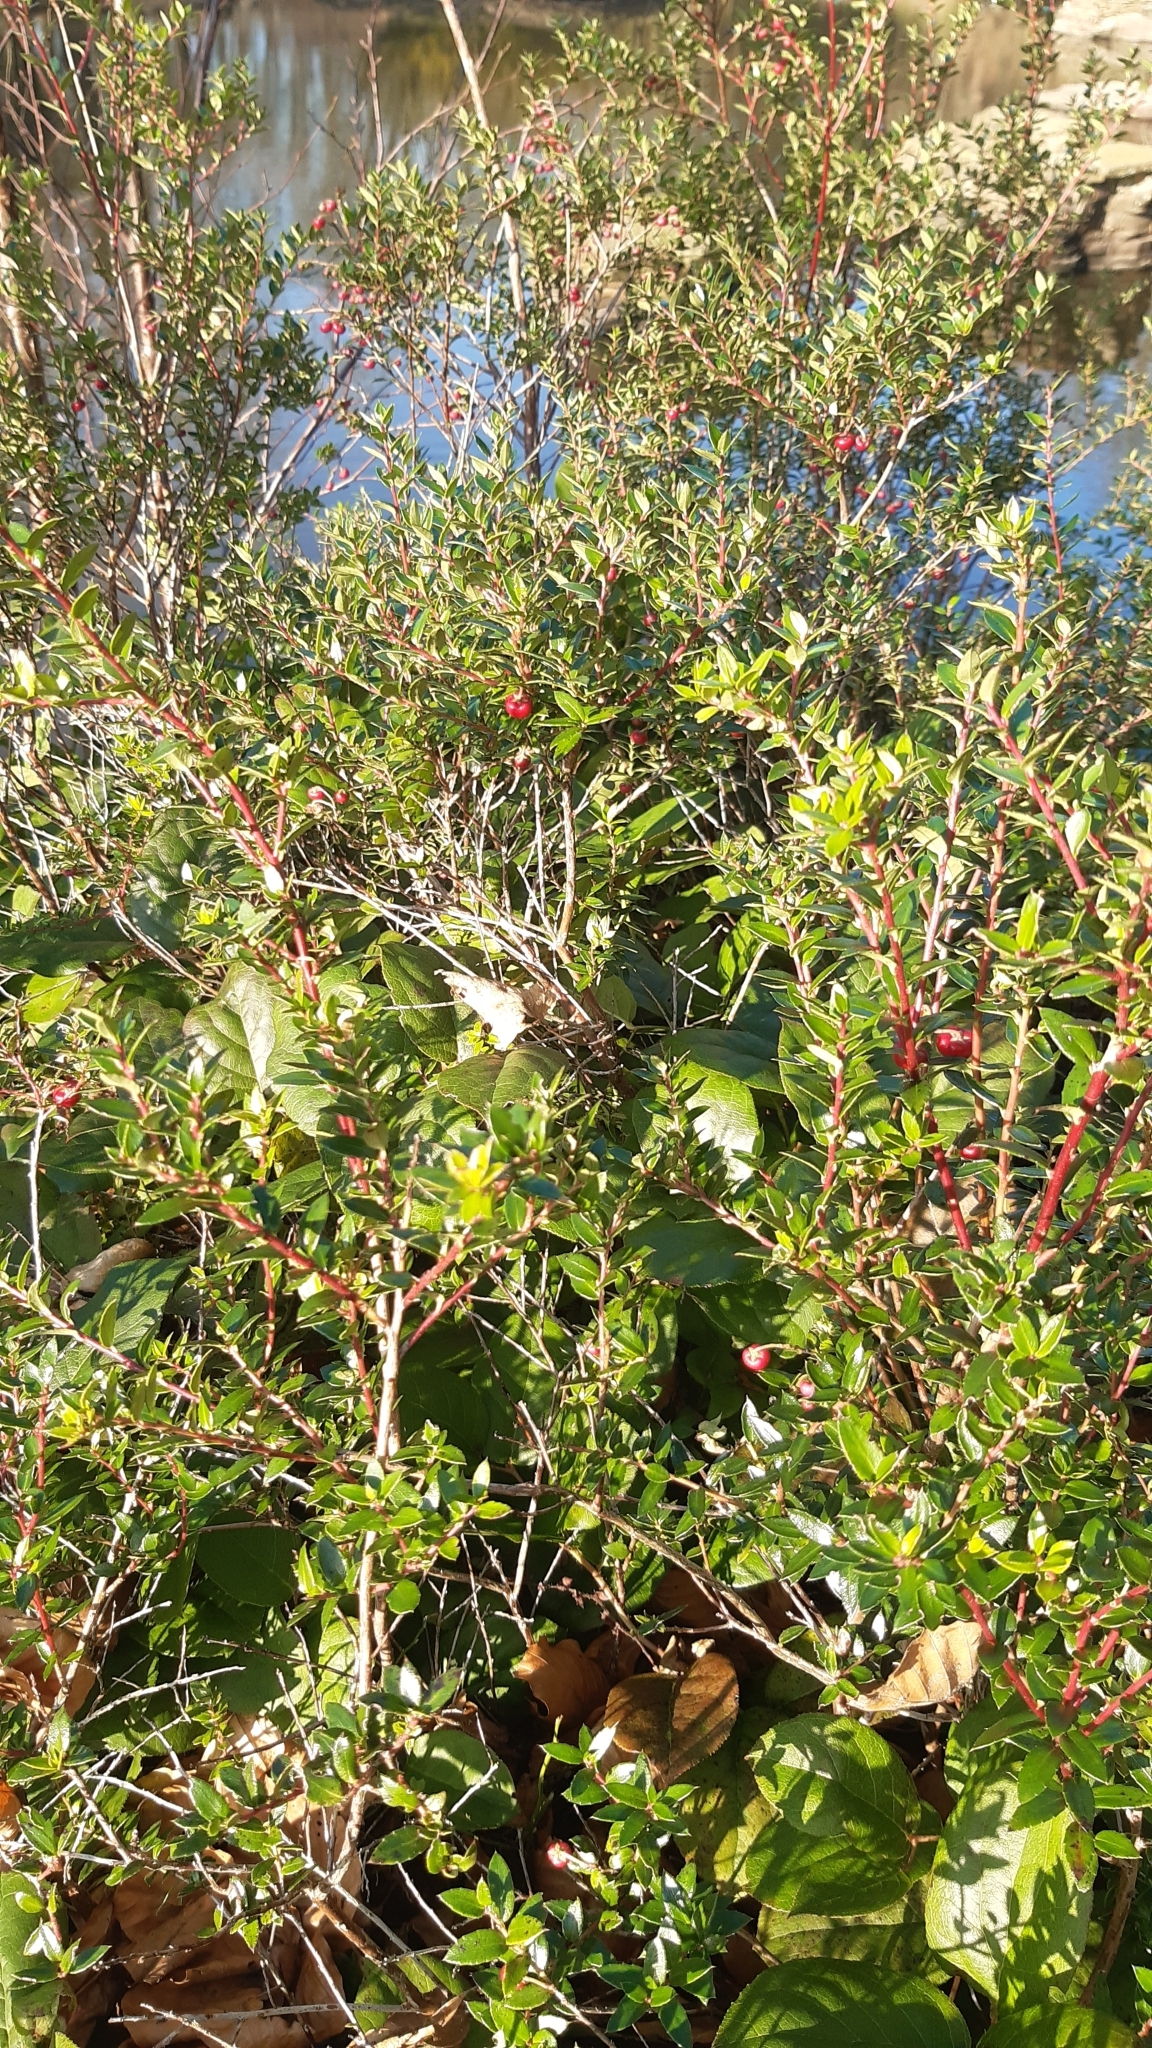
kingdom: Plantae
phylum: Tracheophyta
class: Magnoliopsida
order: Ericales
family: Ericaceae
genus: Gaultheria
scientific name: Gaultheria mucronata
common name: Prickly heath
